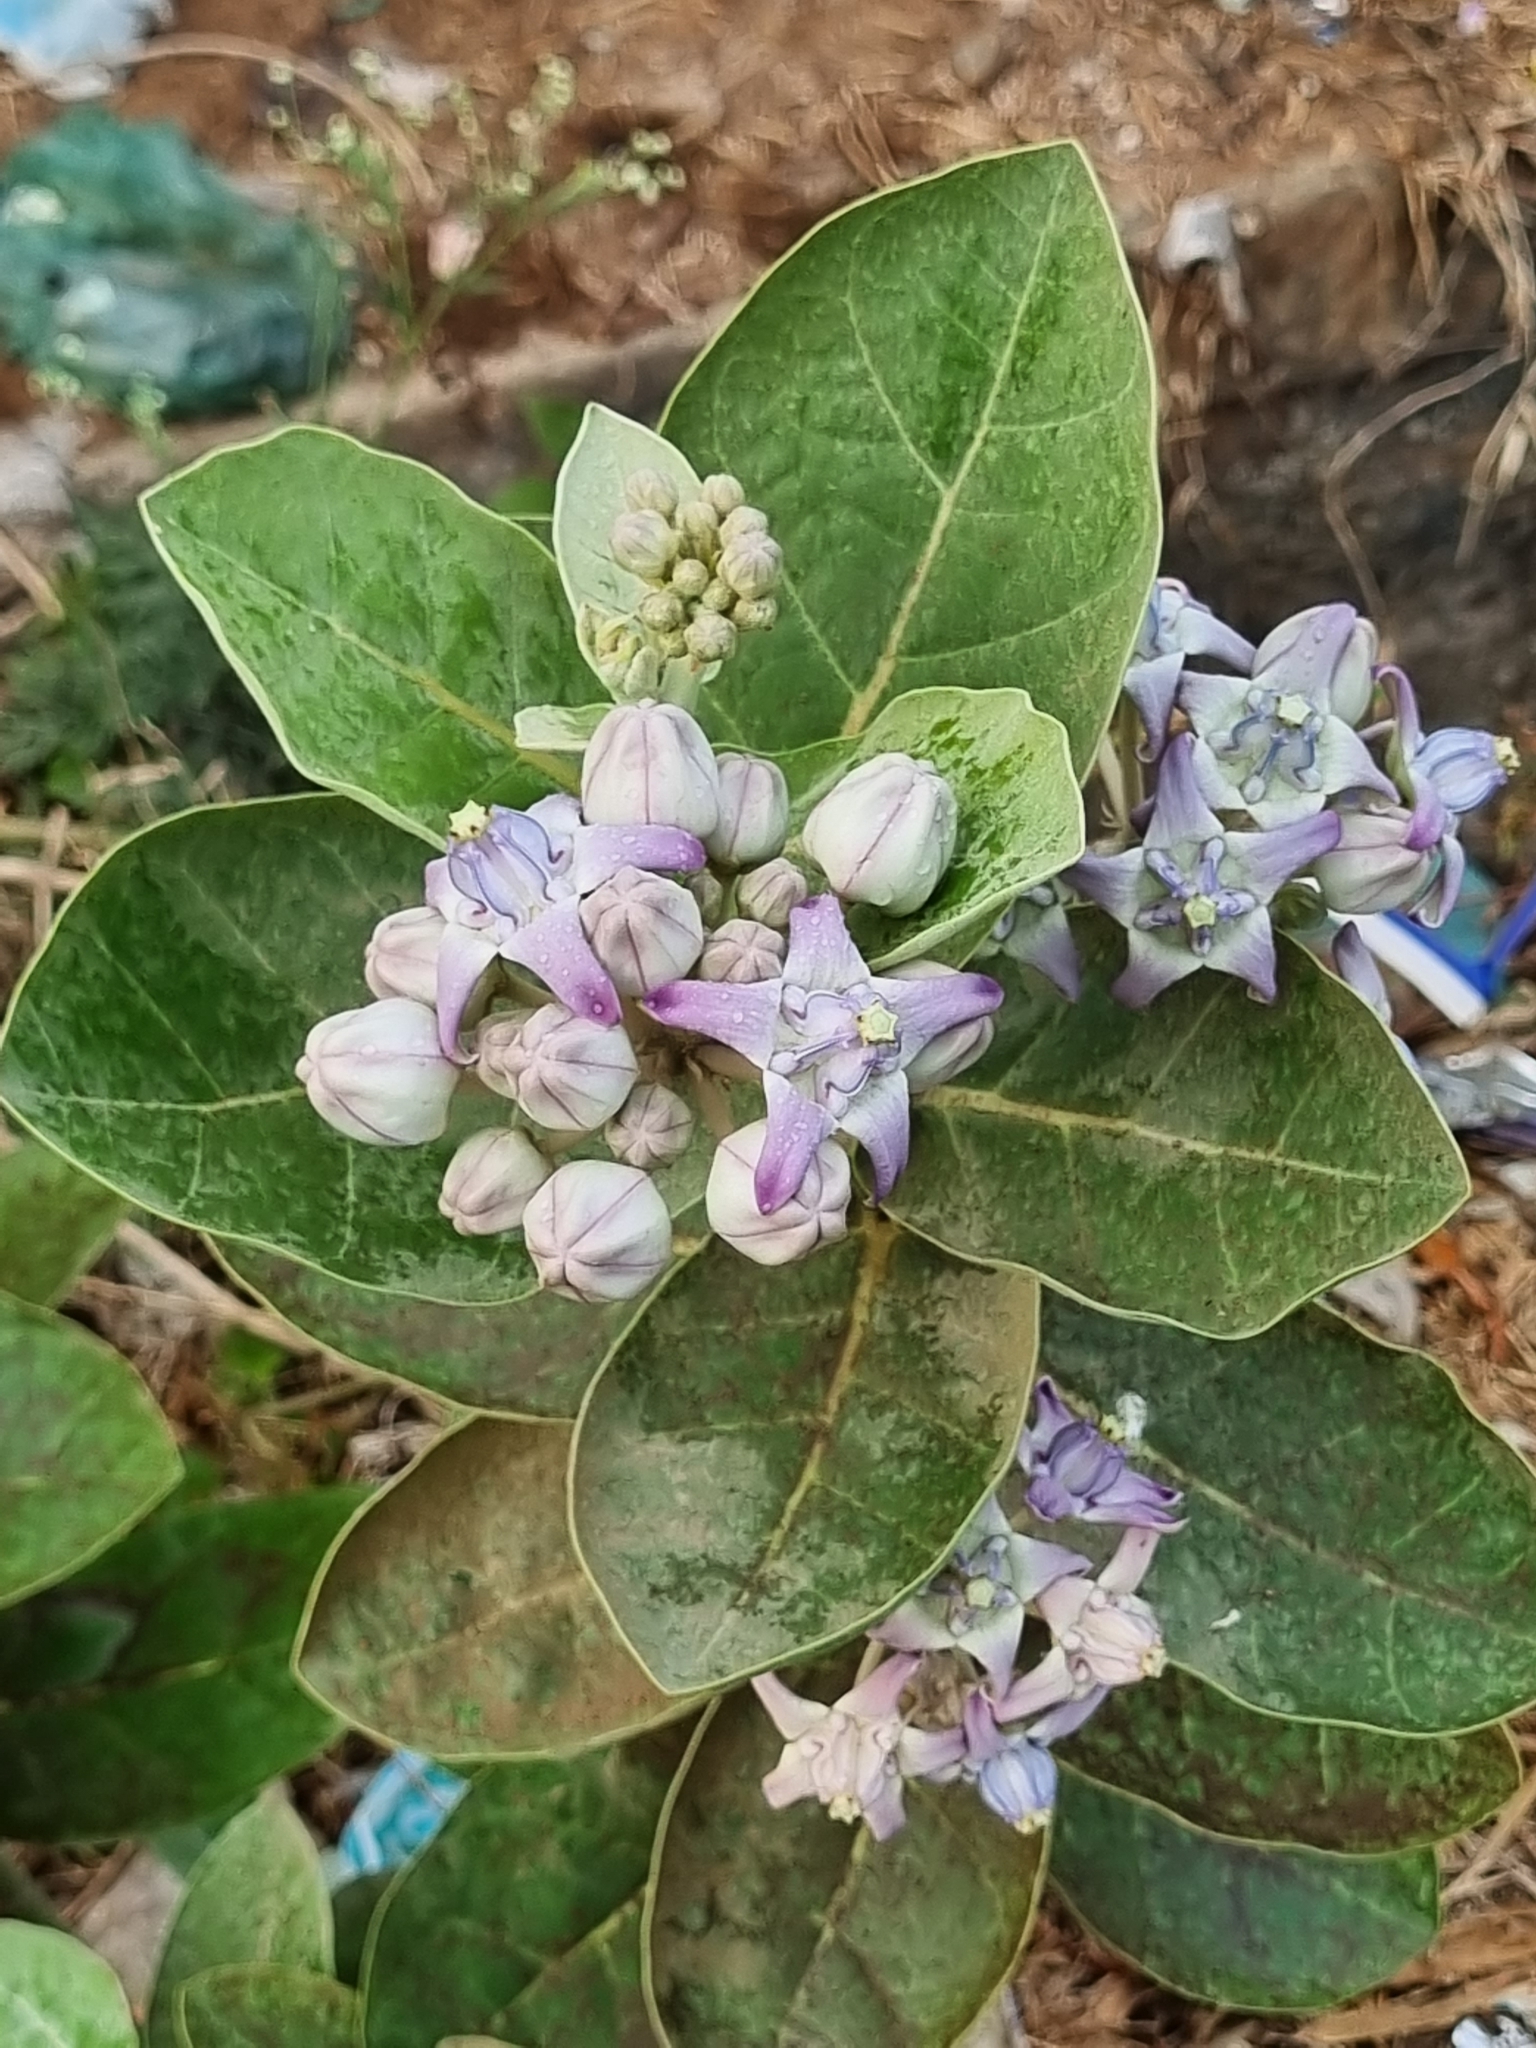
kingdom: Plantae
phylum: Tracheophyta
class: Magnoliopsida
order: Gentianales
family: Apocynaceae
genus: Calotropis
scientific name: Calotropis gigantea
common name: Crown flower
